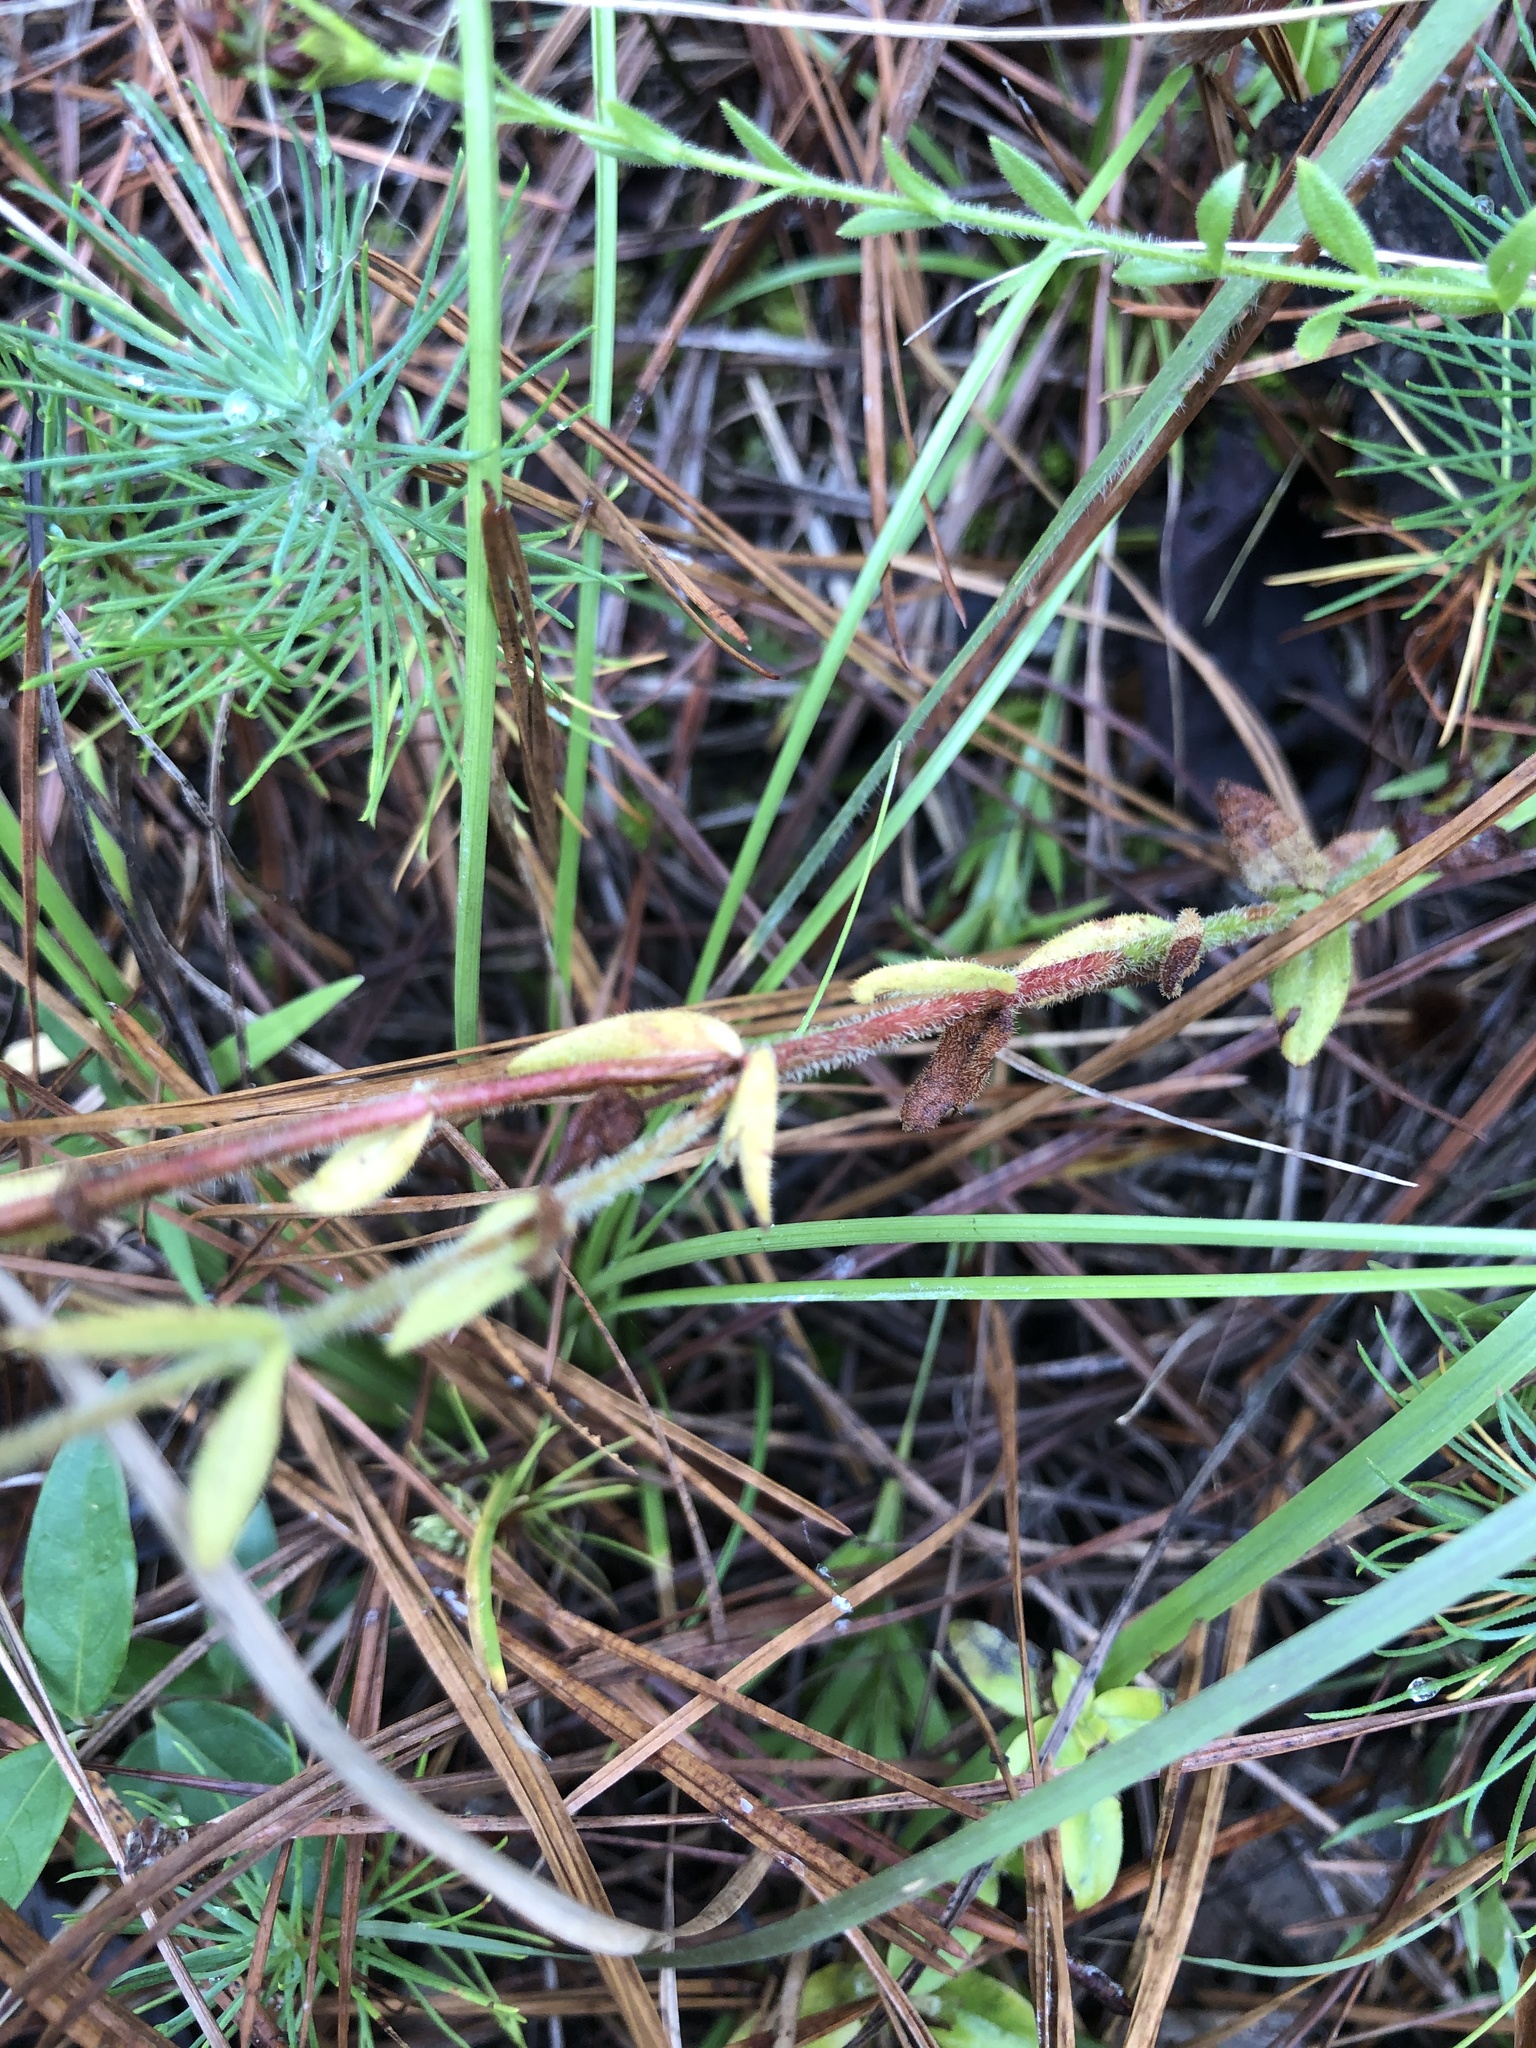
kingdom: Plantae
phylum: Tracheophyta
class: Magnoliopsida
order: Malpighiales
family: Hypericaceae
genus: Hypericum
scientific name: Hypericum setosum
